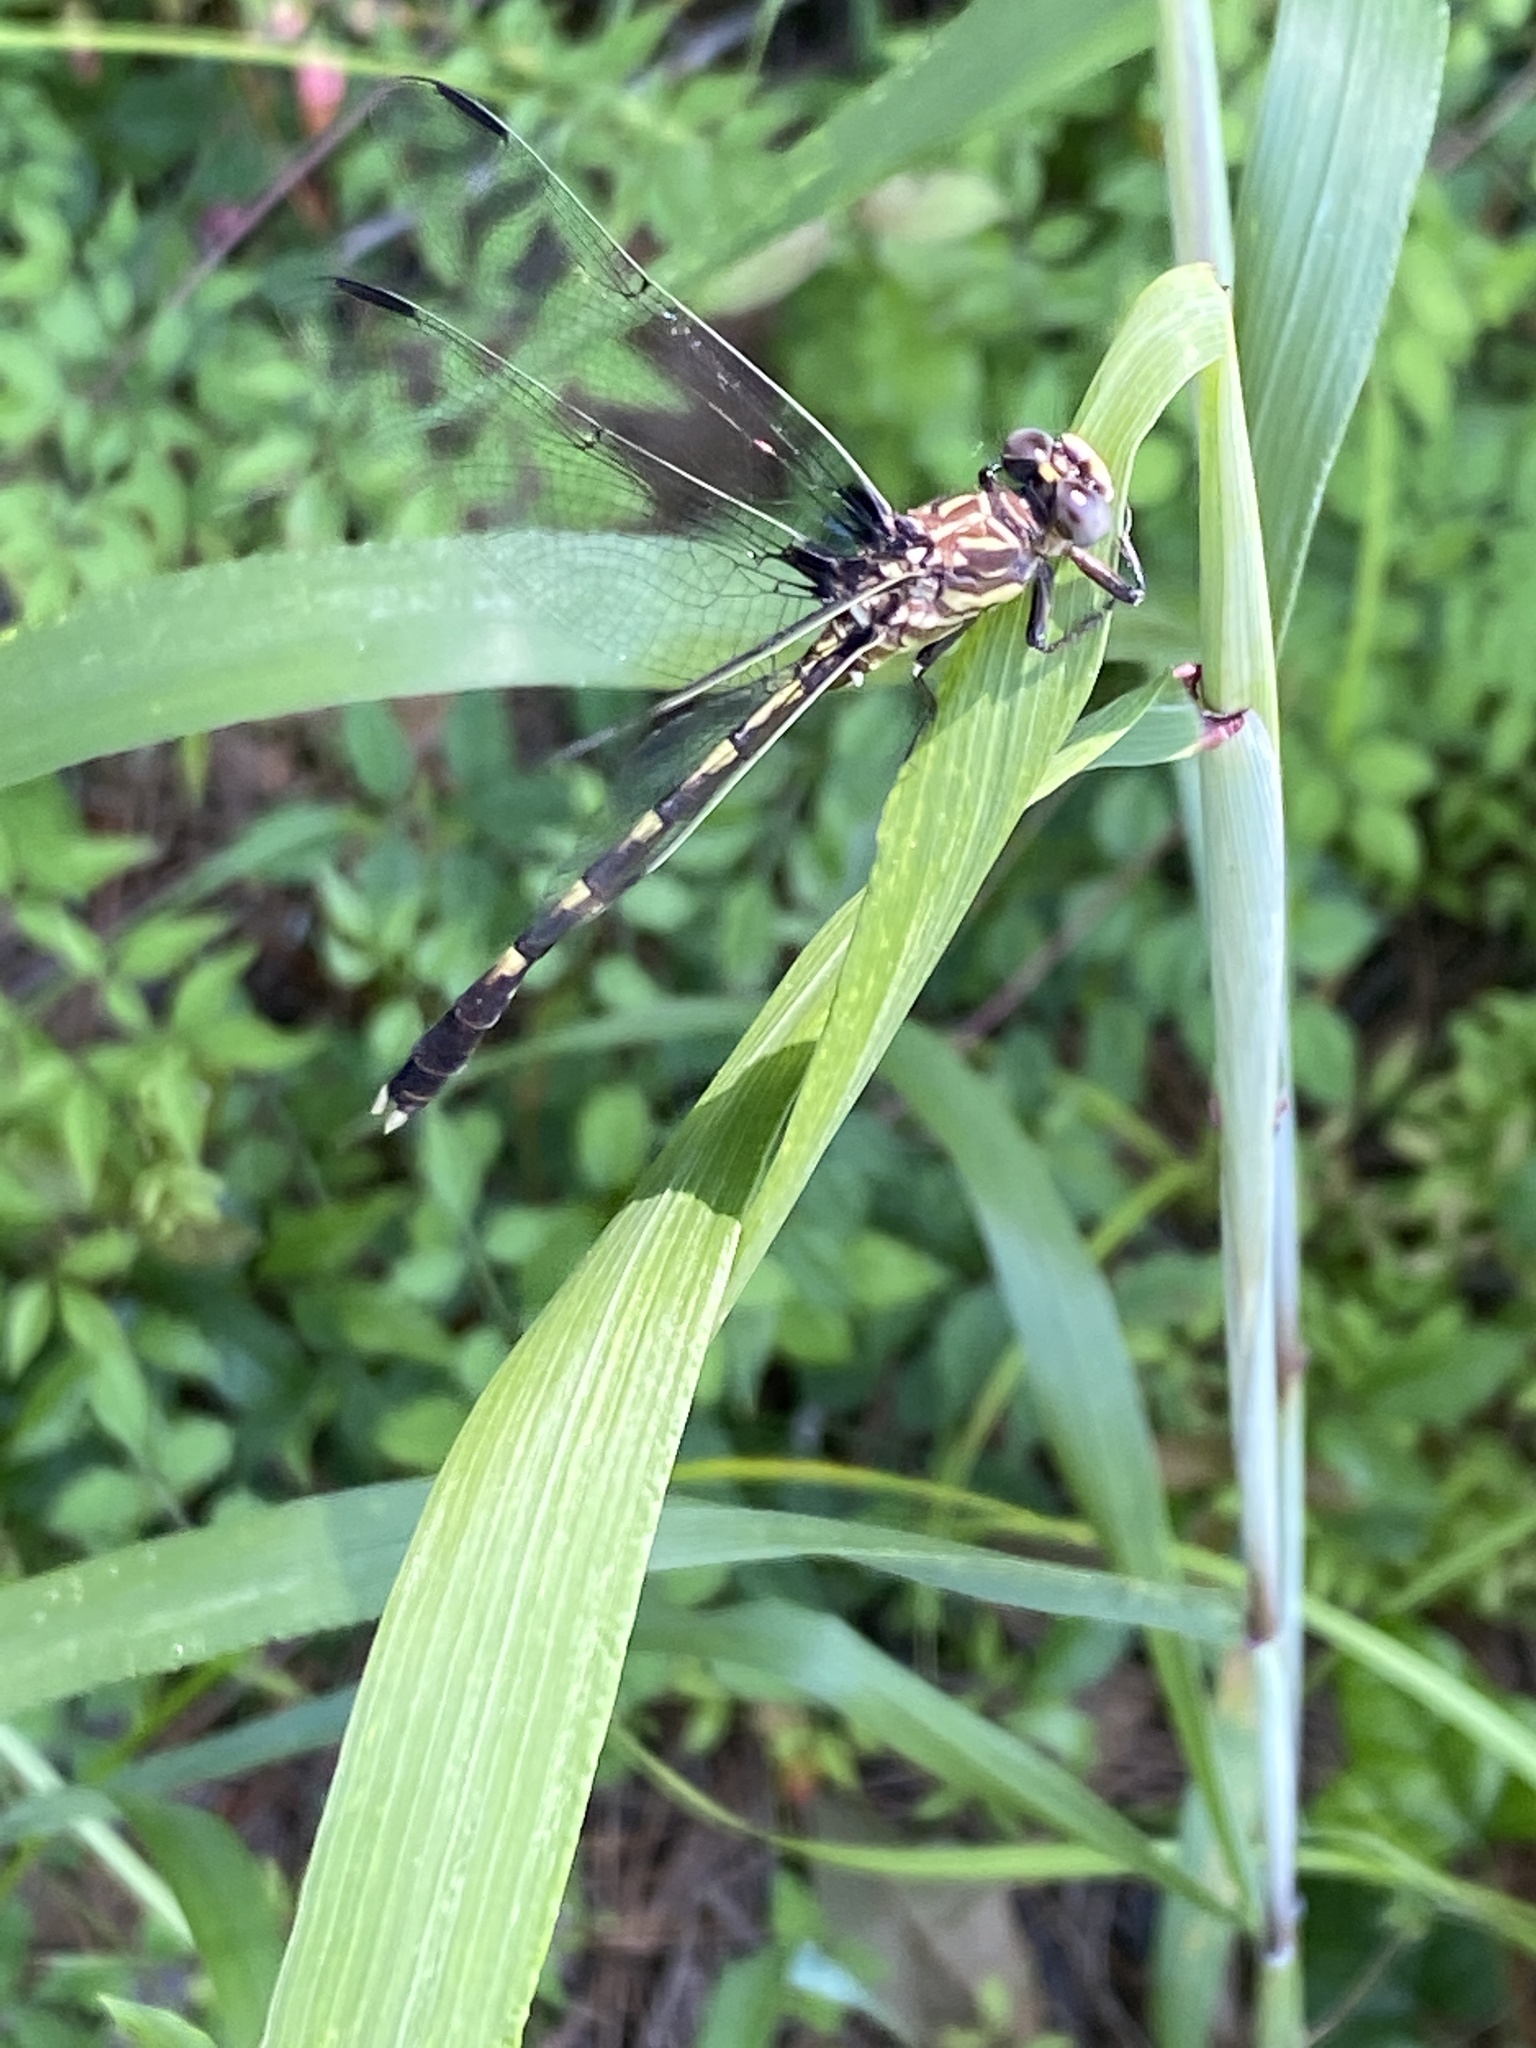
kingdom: Animalia
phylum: Arthropoda
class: Insecta
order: Odonata
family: Gomphidae
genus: Progomphus
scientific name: Progomphus obscurus
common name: Common sanddragon
